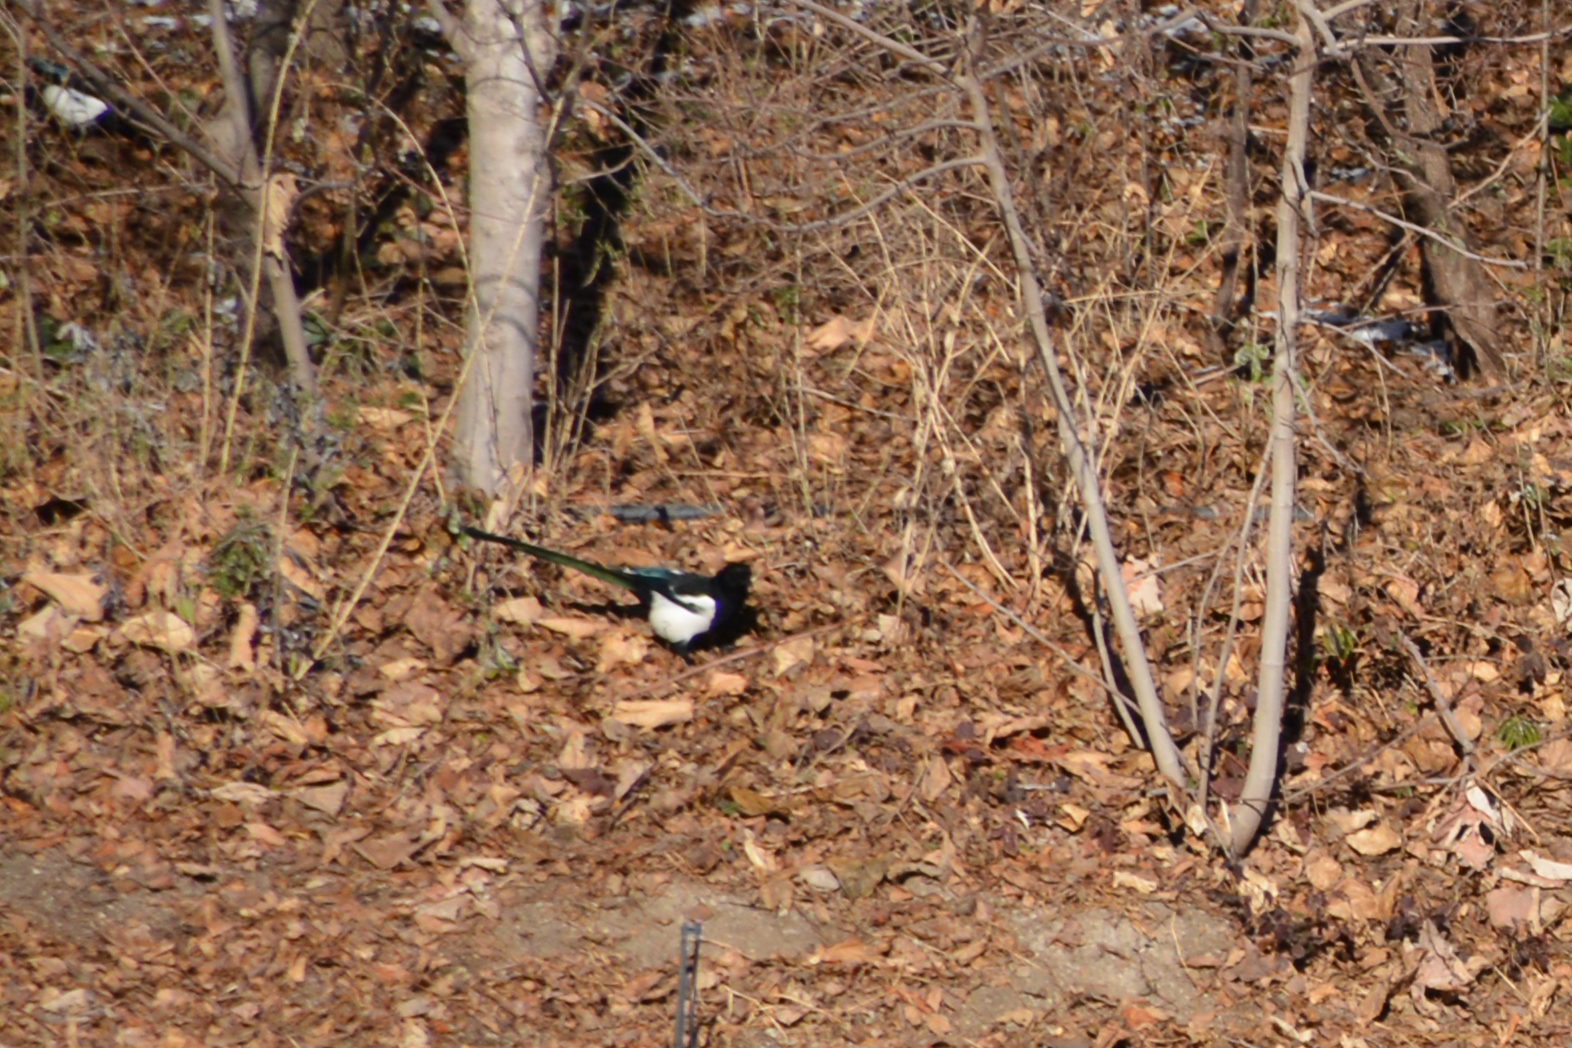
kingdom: Animalia
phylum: Chordata
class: Aves
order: Passeriformes
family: Corvidae
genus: Pica
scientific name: Pica pica
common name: Eurasian magpie
